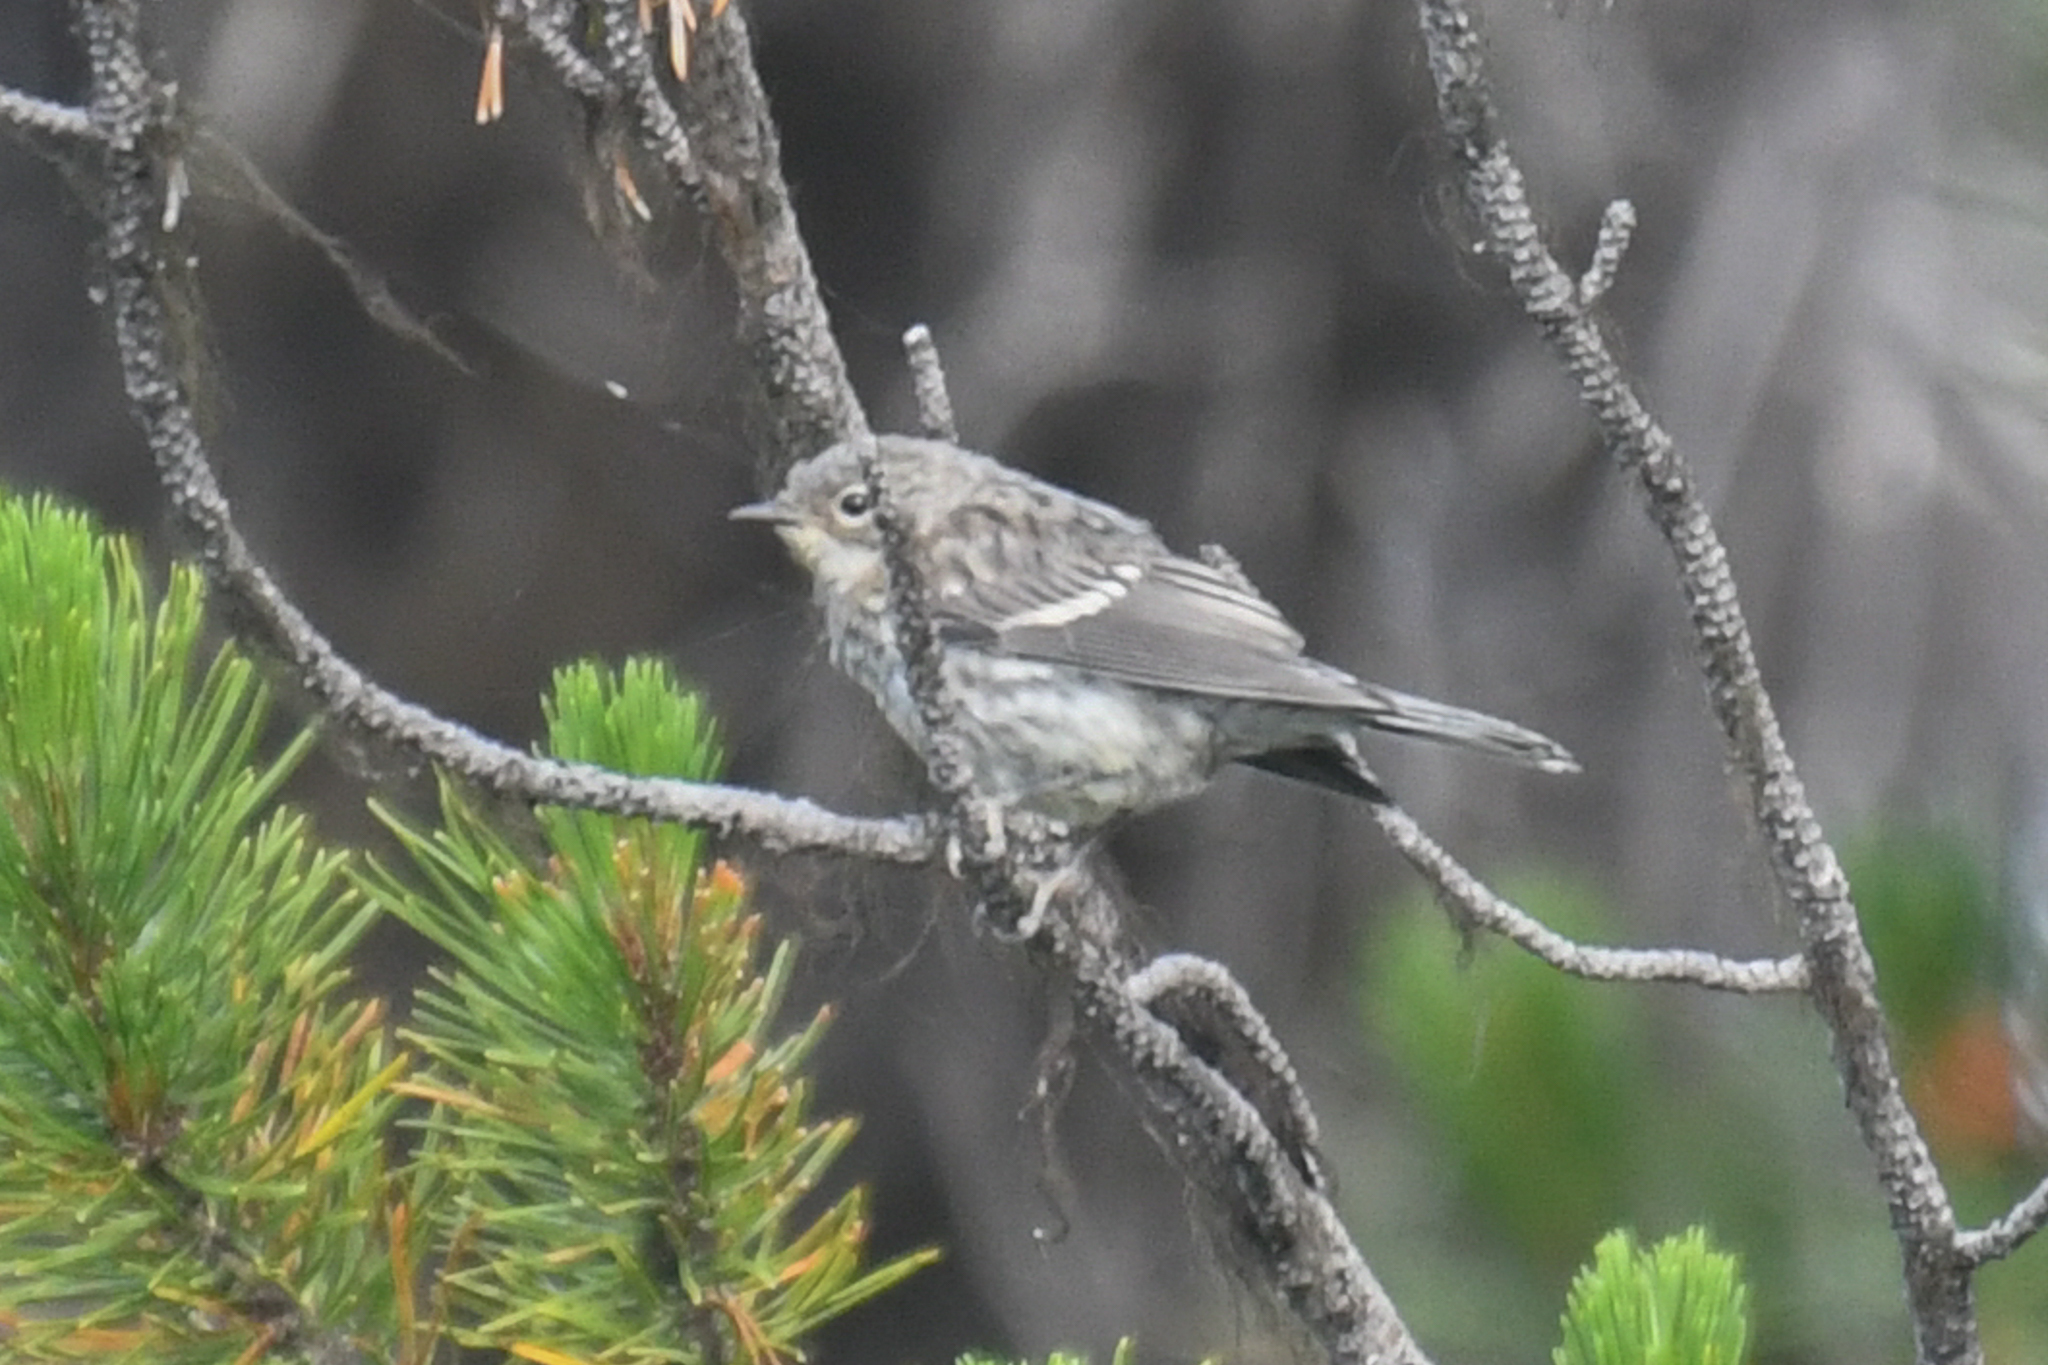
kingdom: Animalia
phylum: Chordata
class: Aves
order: Passeriformes
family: Parulidae
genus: Setophaga
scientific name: Setophaga coronata
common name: Myrtle warbler
